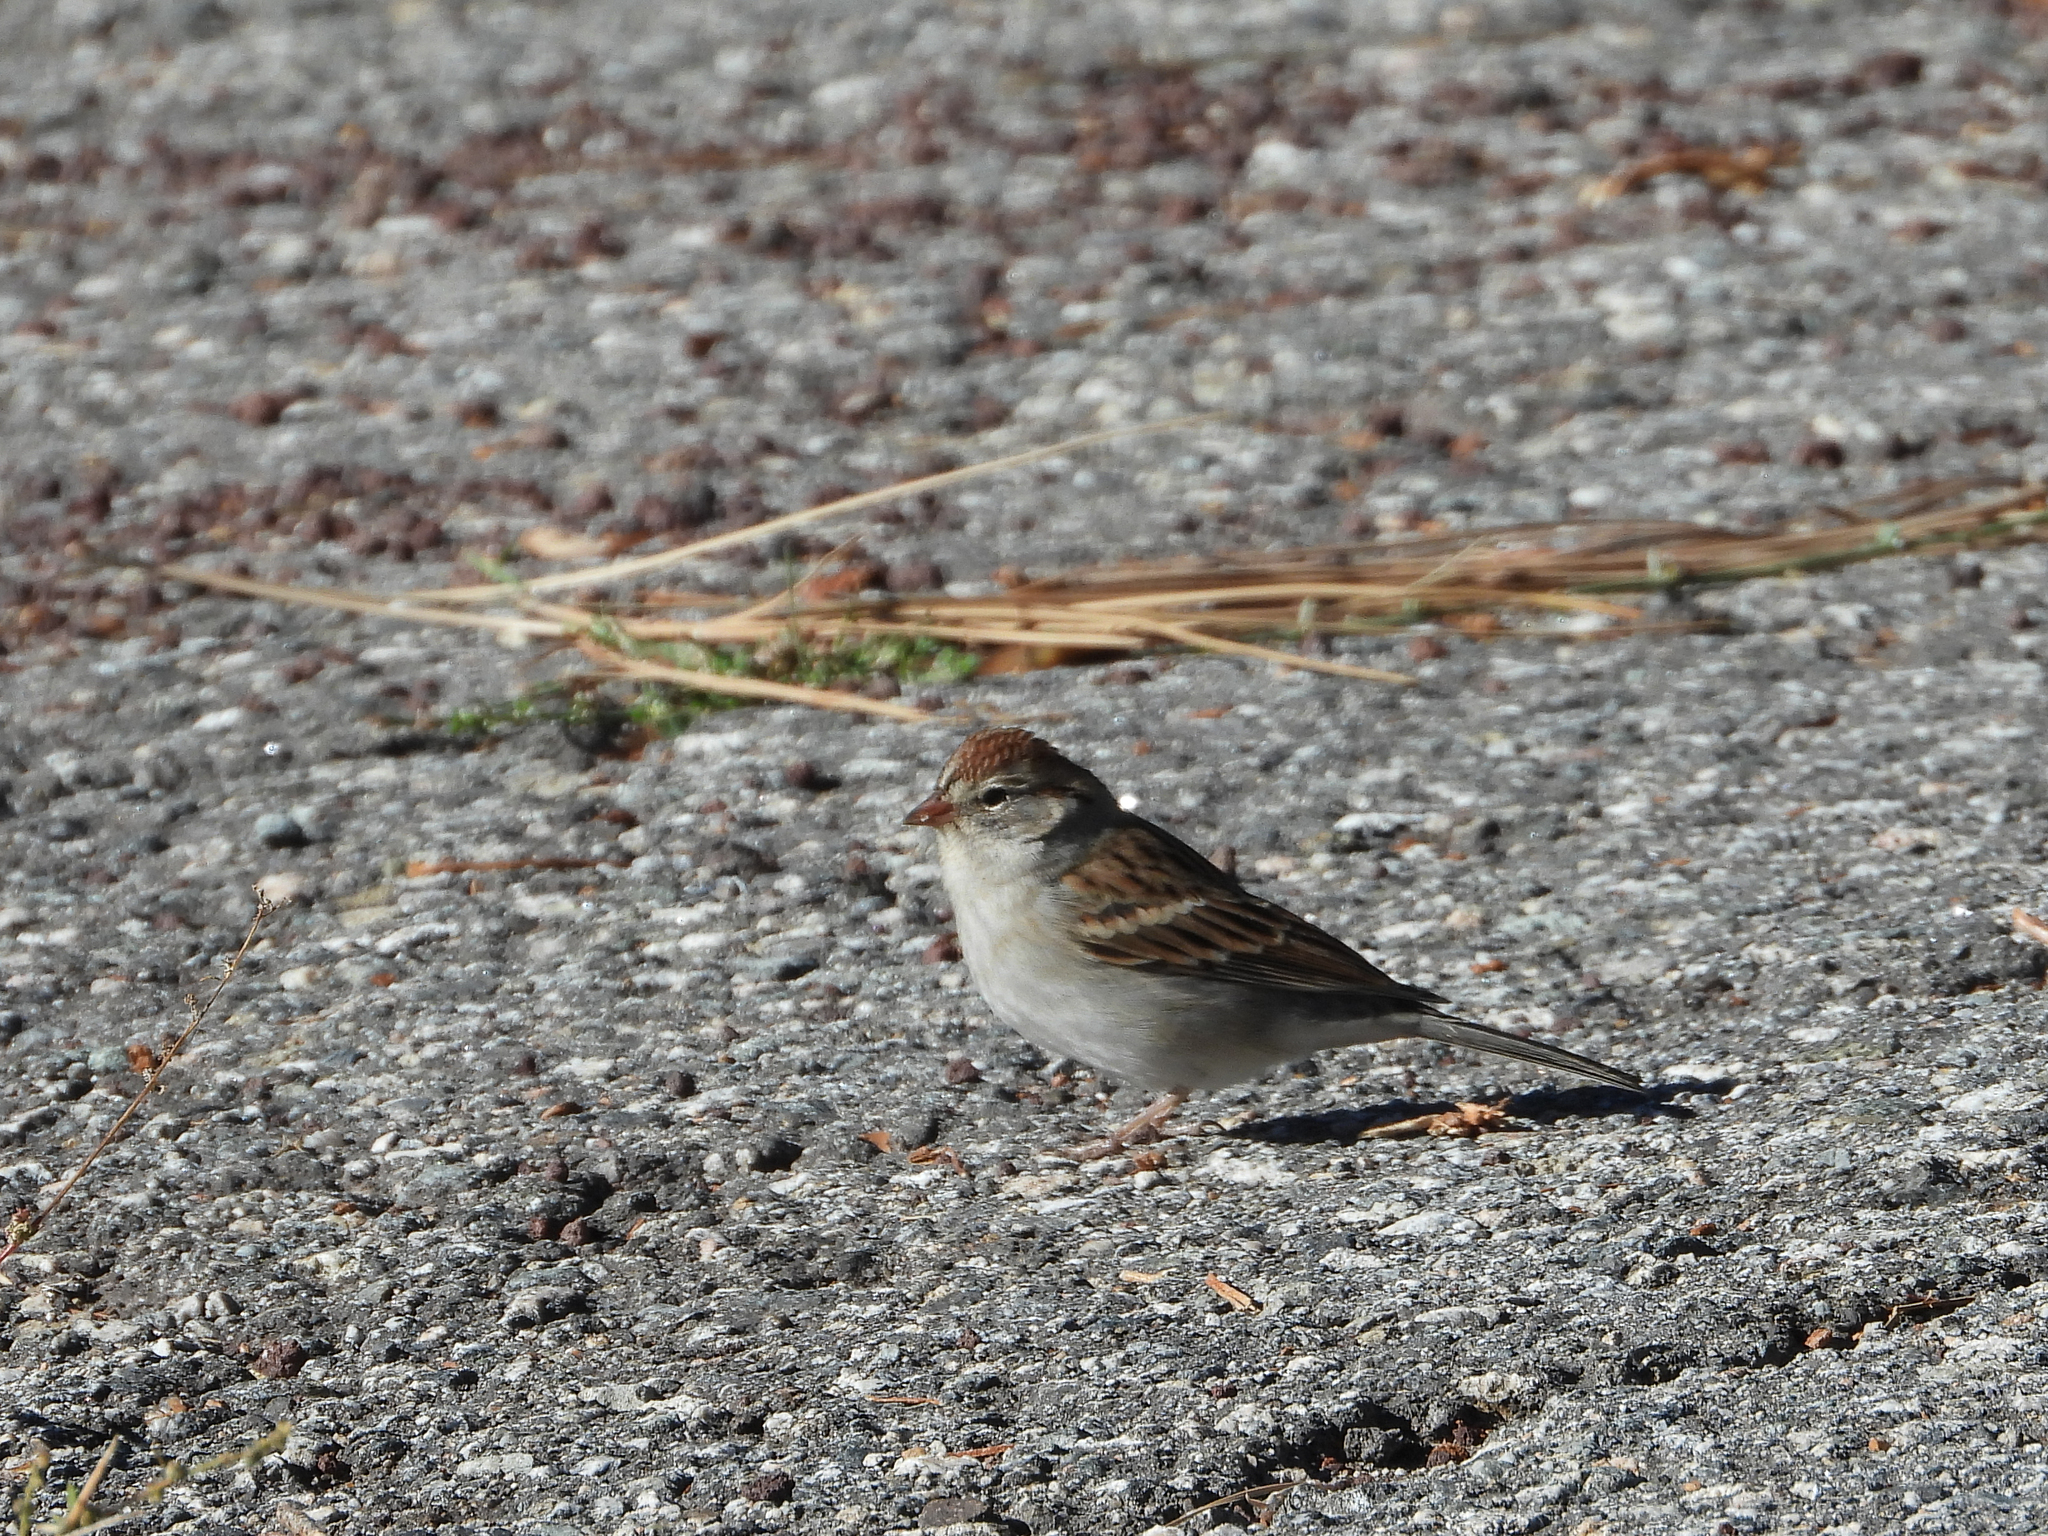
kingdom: Animalia
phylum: Chordata
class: Aves
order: Passeriformes
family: Passerellidae
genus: Spizella
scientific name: Spizella passerina
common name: Chipping sparrow
